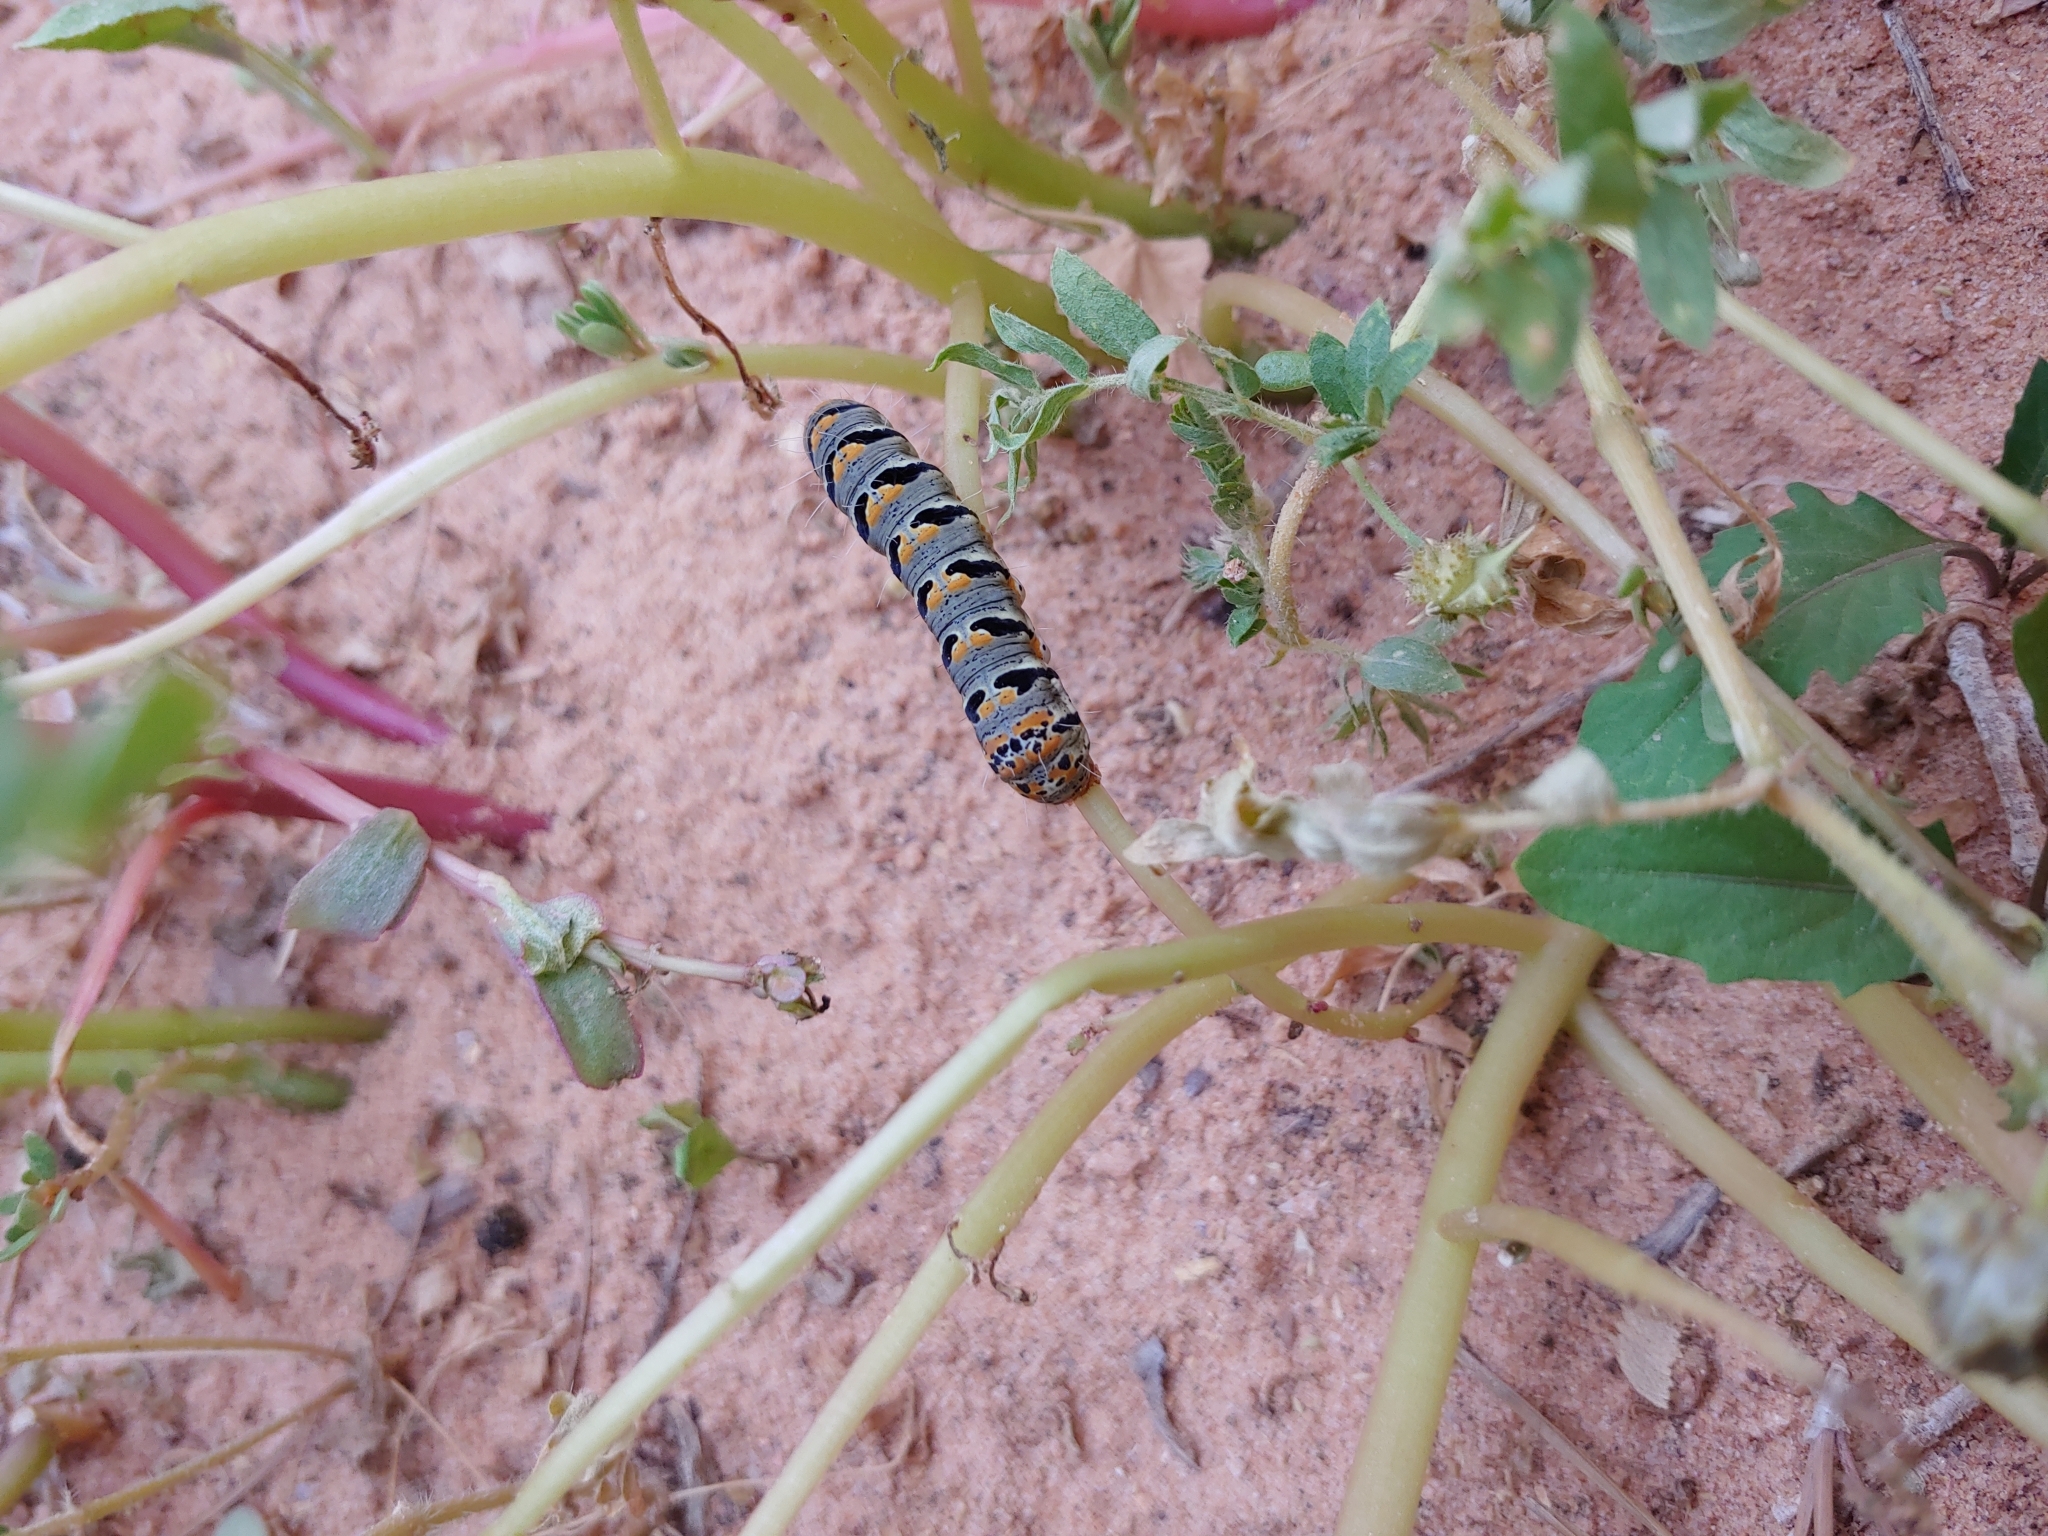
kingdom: Animalia
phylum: Arthropoda
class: Insecta
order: Lepidoptera
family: Noctuidae
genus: Euscirrhopterus
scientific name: Euscirrhopterus gloveri
